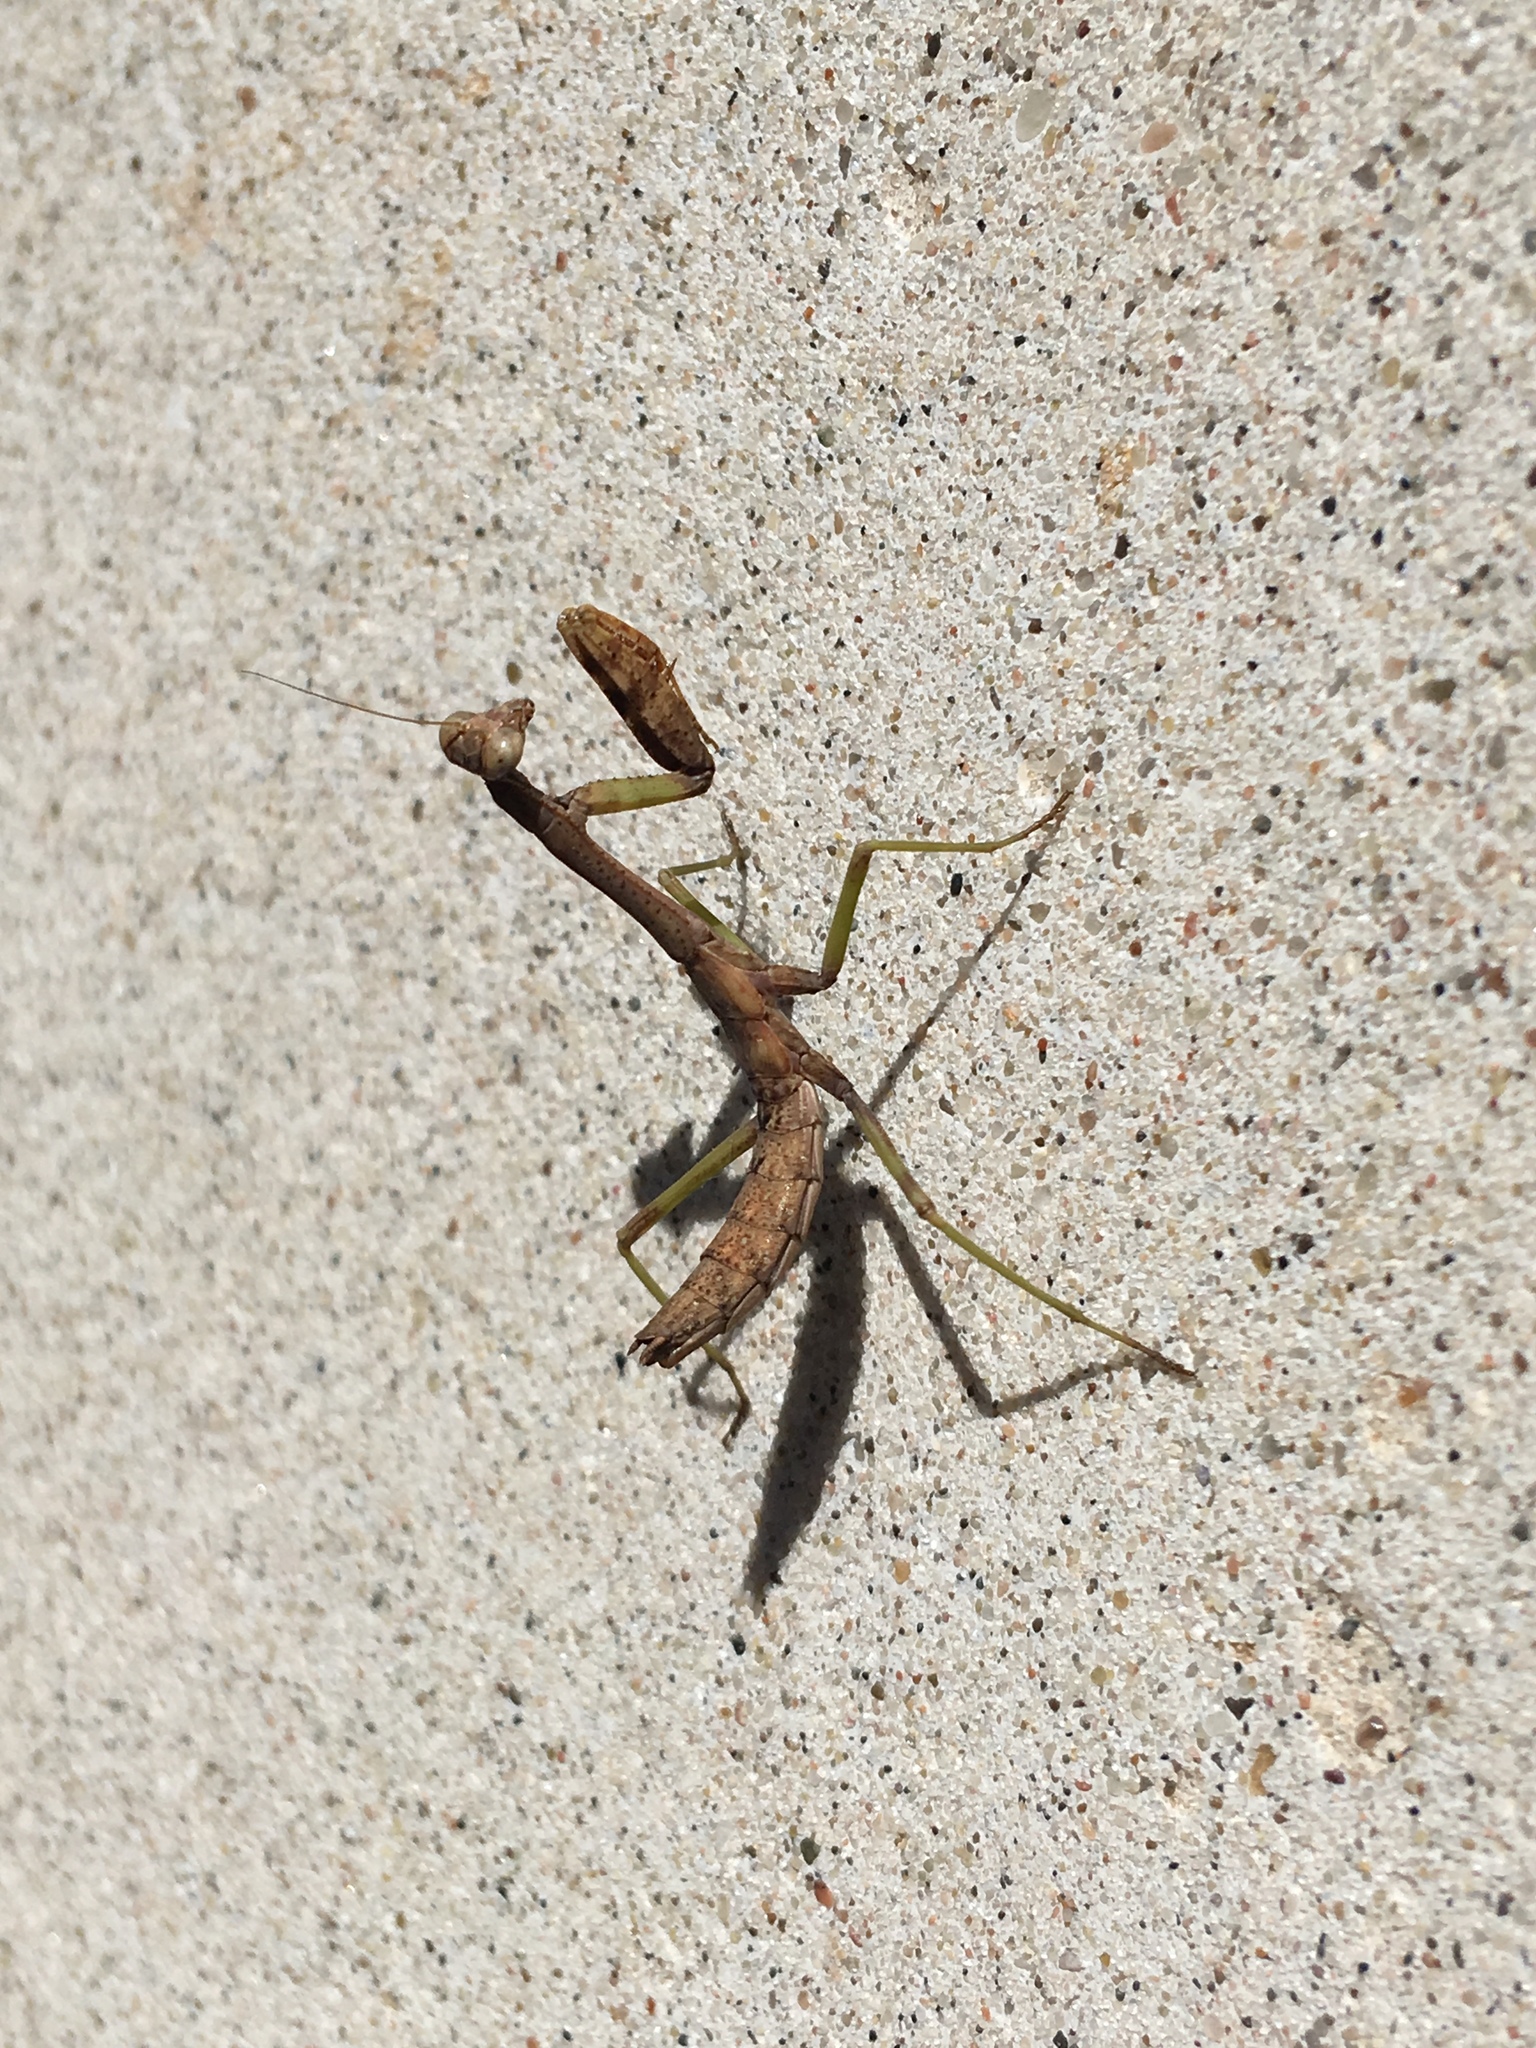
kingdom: Animalia
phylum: Arthropoda
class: Insecta
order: Mantodea
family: Mantidae
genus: Stagmomantis
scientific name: Stagmomantis carolina
